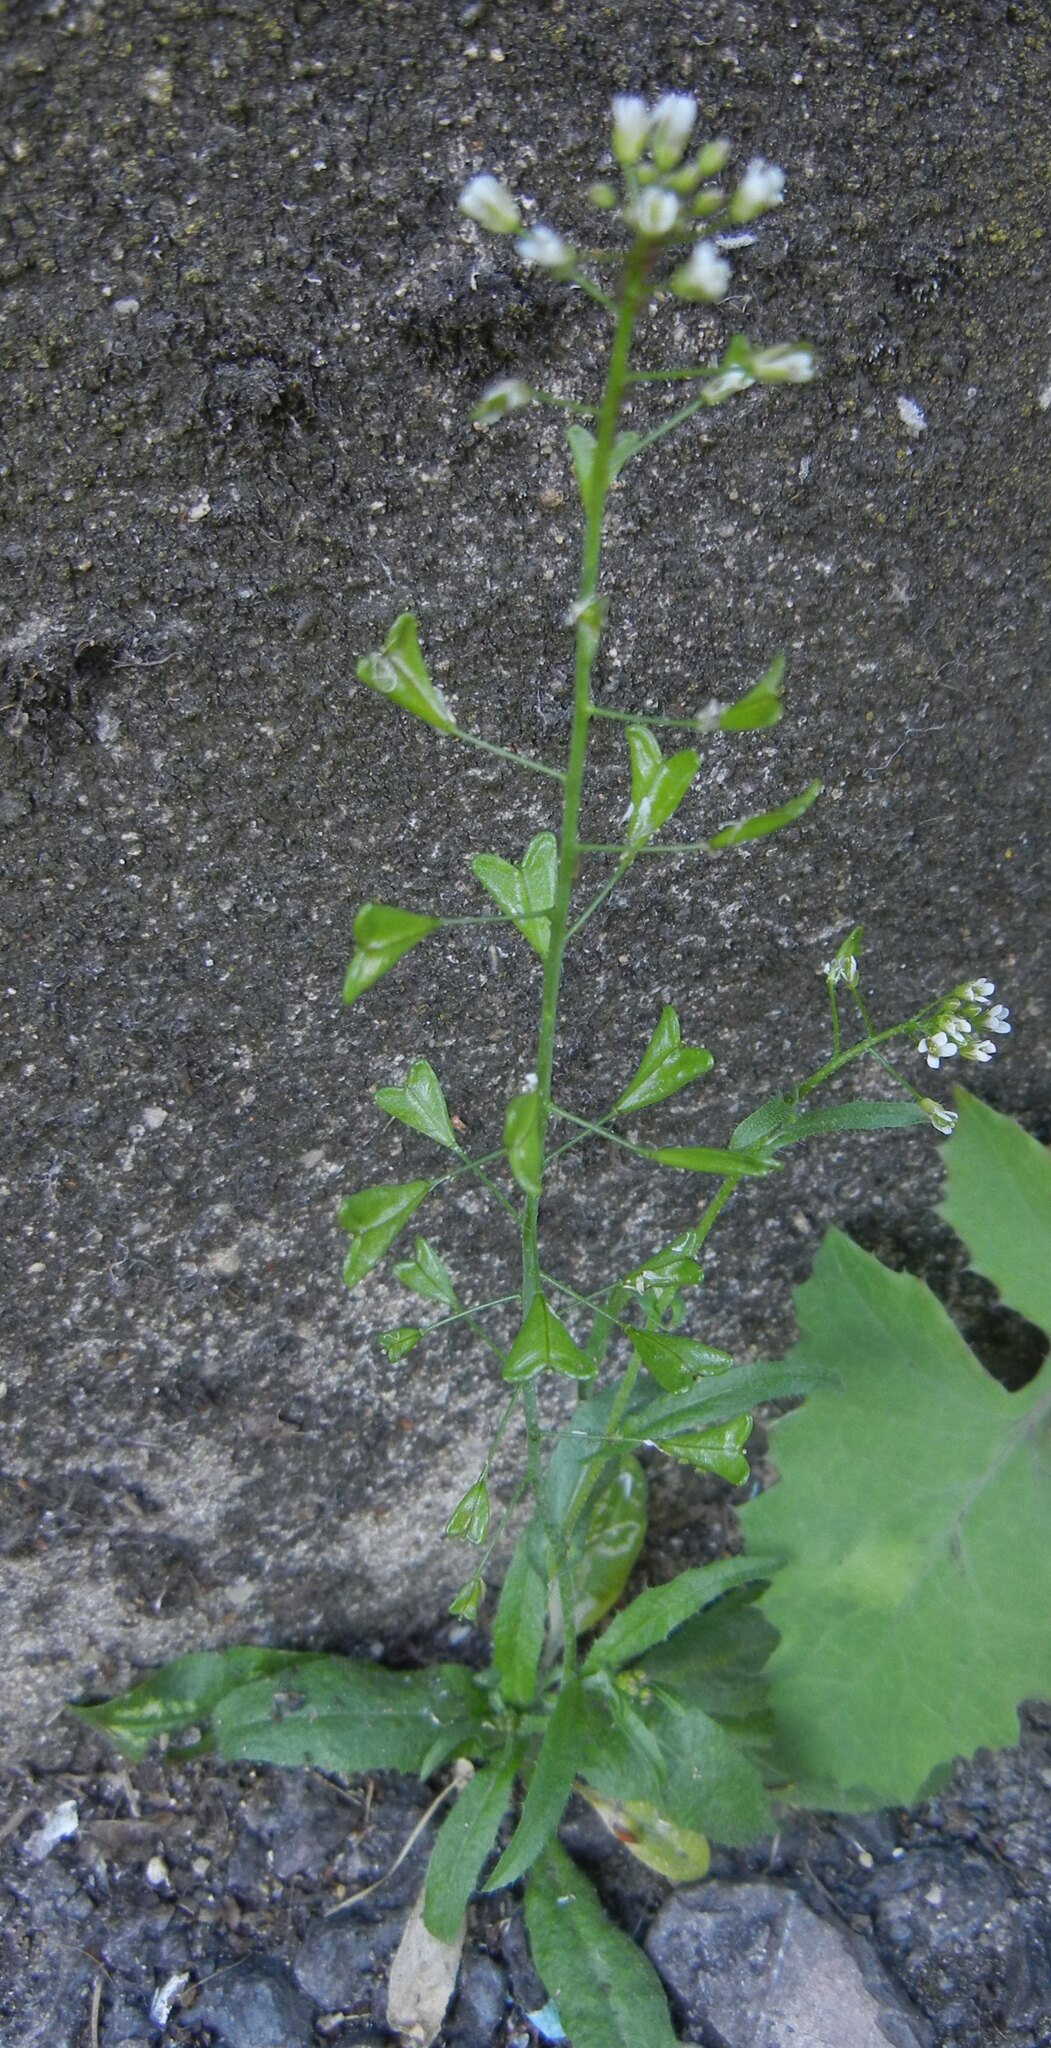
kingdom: Plantae
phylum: Tracheophyta
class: Magnoliopsida
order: Brassicales
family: Brassicaceae
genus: Capsella
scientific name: Capsella bursa-pastoris
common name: Shepherd's purse
